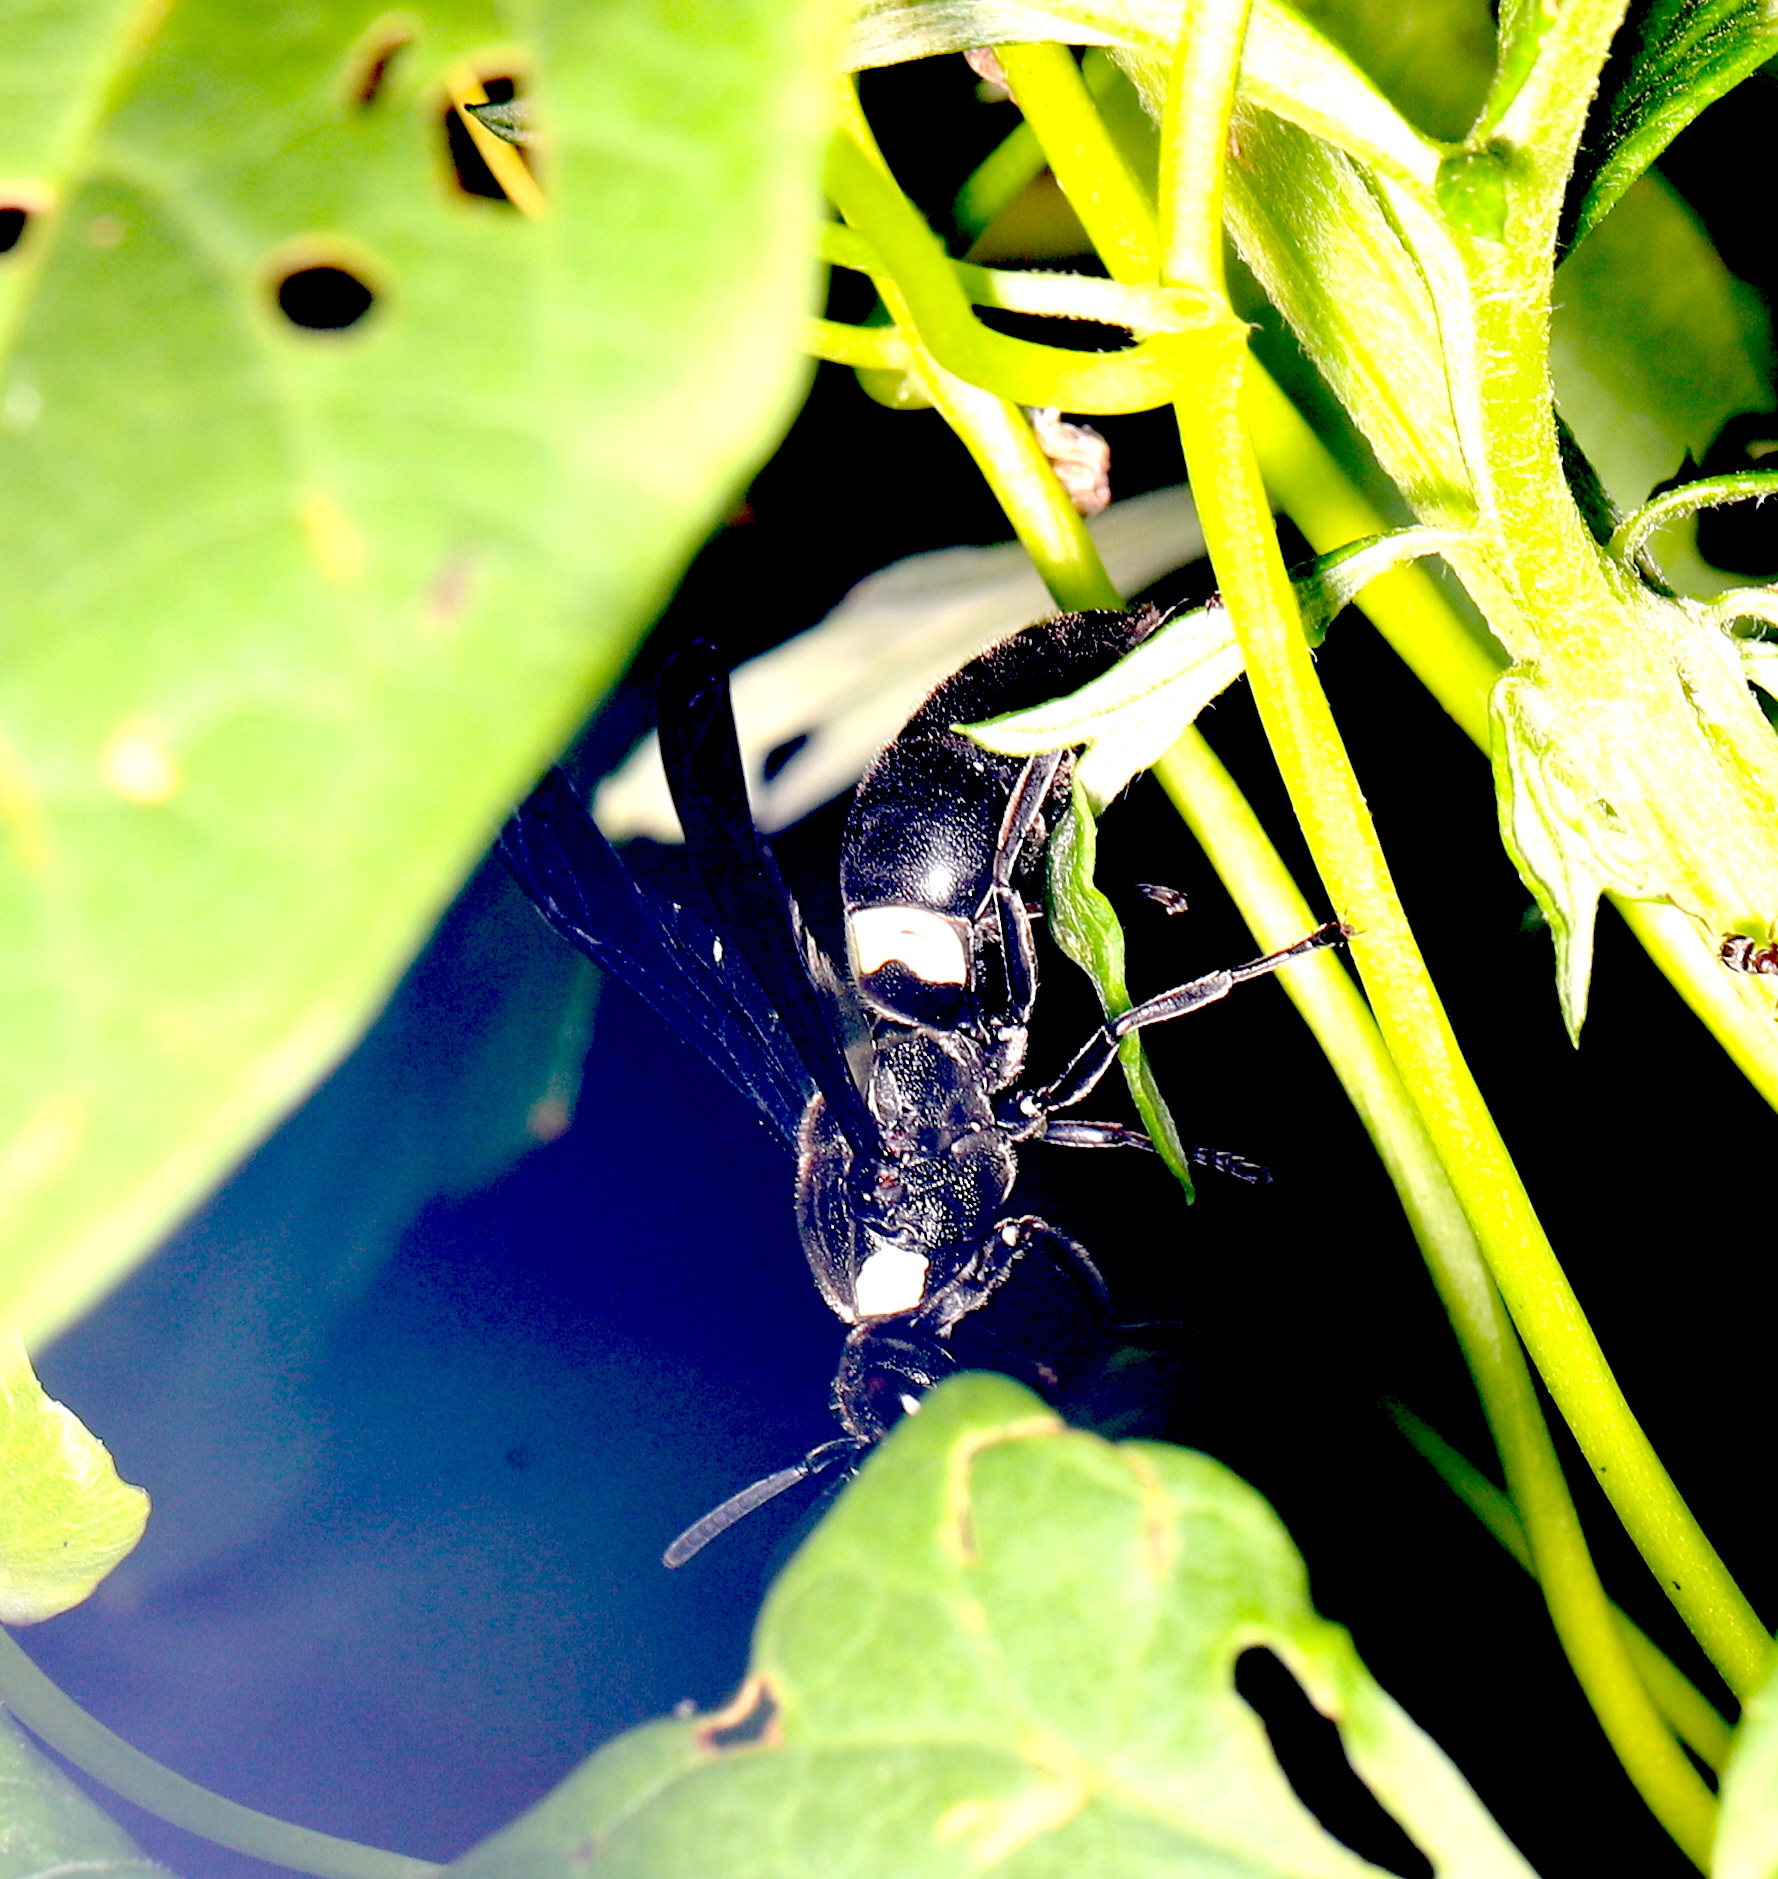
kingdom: Animalia
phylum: Arthropoda
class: Insecta
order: Hymenoptera
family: Eumenidae
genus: Monobia
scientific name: Monobia quadridens
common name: Four-toothed mason wasp
